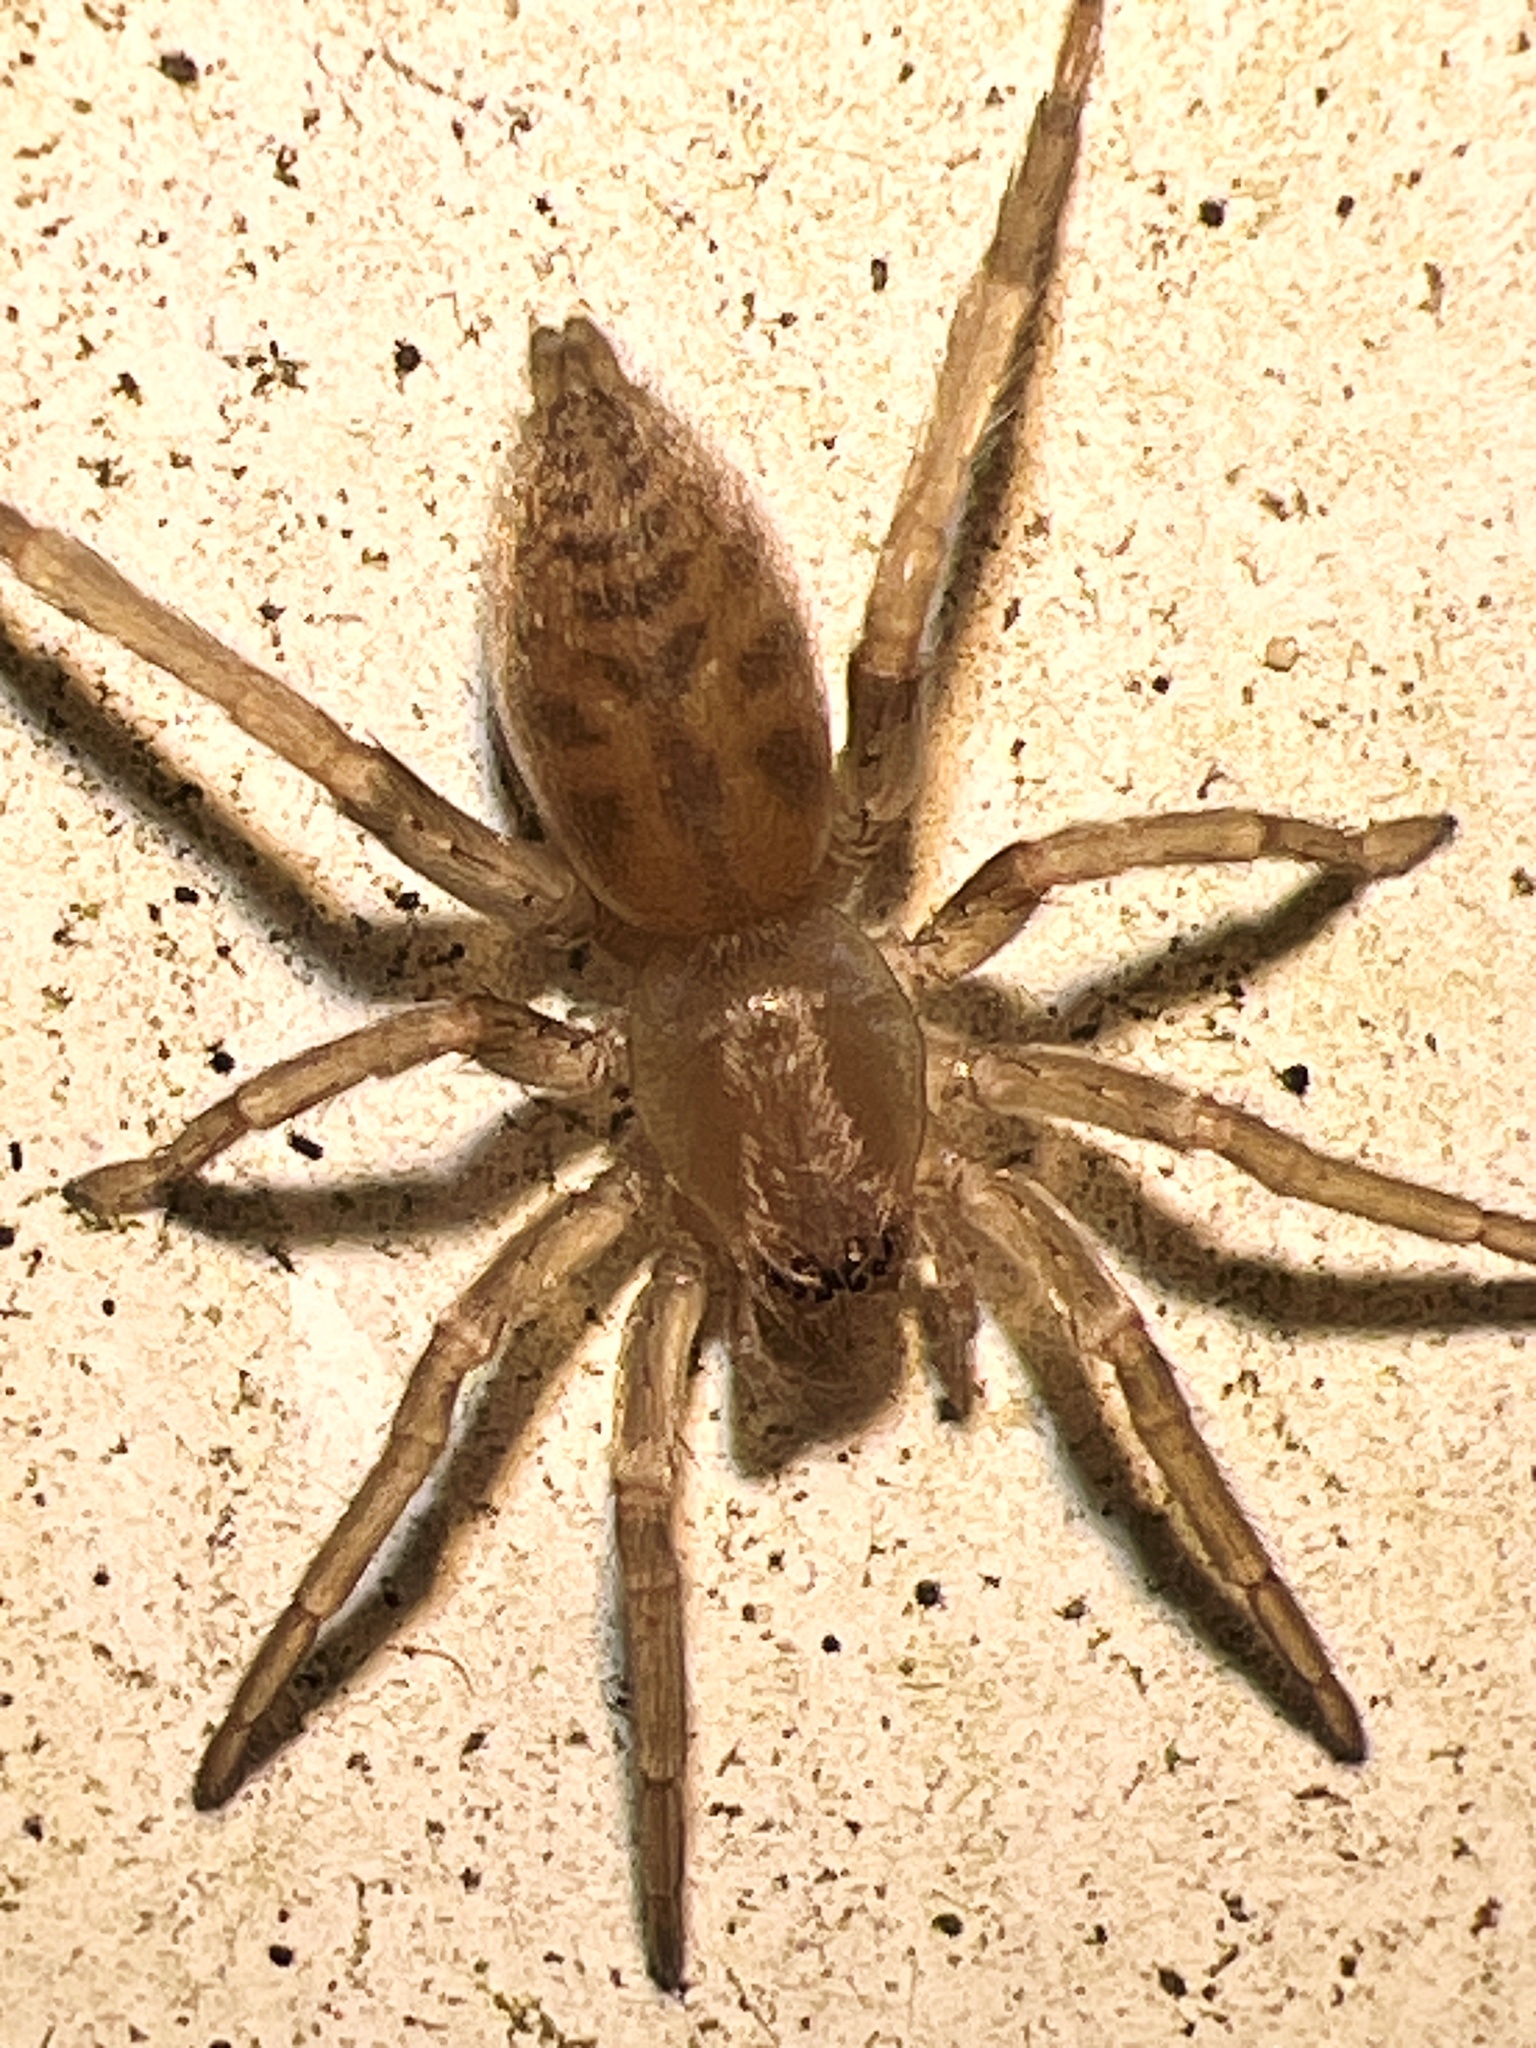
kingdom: Animalia
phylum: Arthropoda
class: Arachnida
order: Araneae
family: Clubionidae
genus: Elaver
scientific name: Elaver excepta
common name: White sac spider
